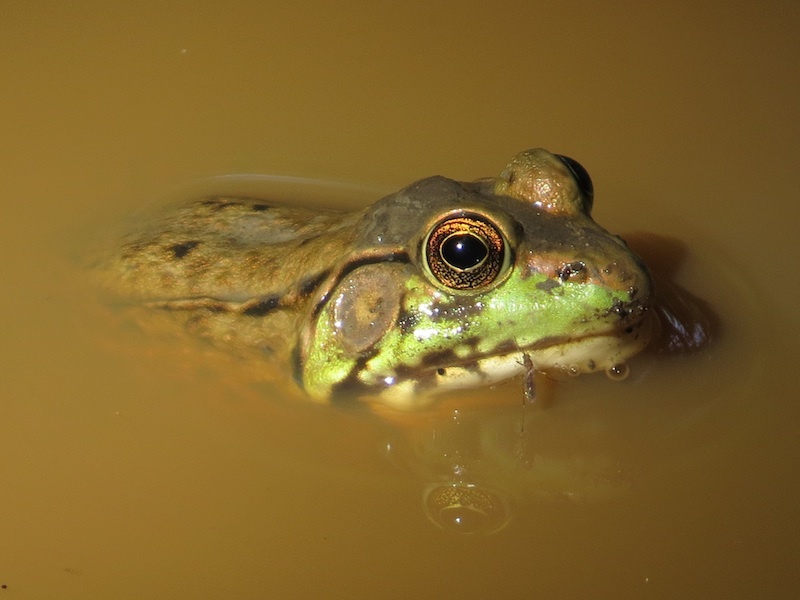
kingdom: Animalia
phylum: Chordata
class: Amphibia
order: Anura
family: Ranidae
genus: Lithobates
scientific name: Lithobates clamitans
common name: Green frog
